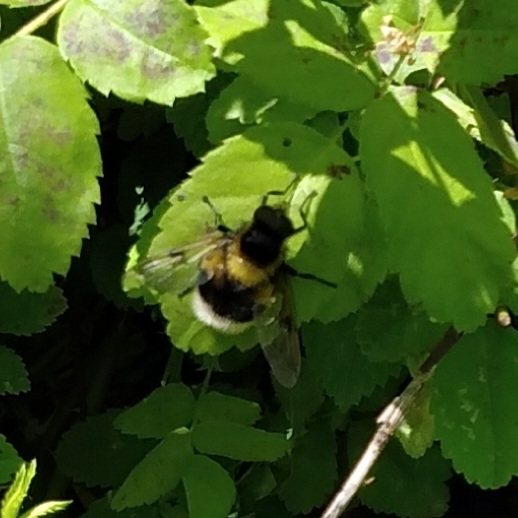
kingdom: Animalia
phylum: Arthropoda
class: Insecta
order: Diptera
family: Syrphidae
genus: Volucella
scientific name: Volucella bombylans
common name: Bumble bee hover fly
